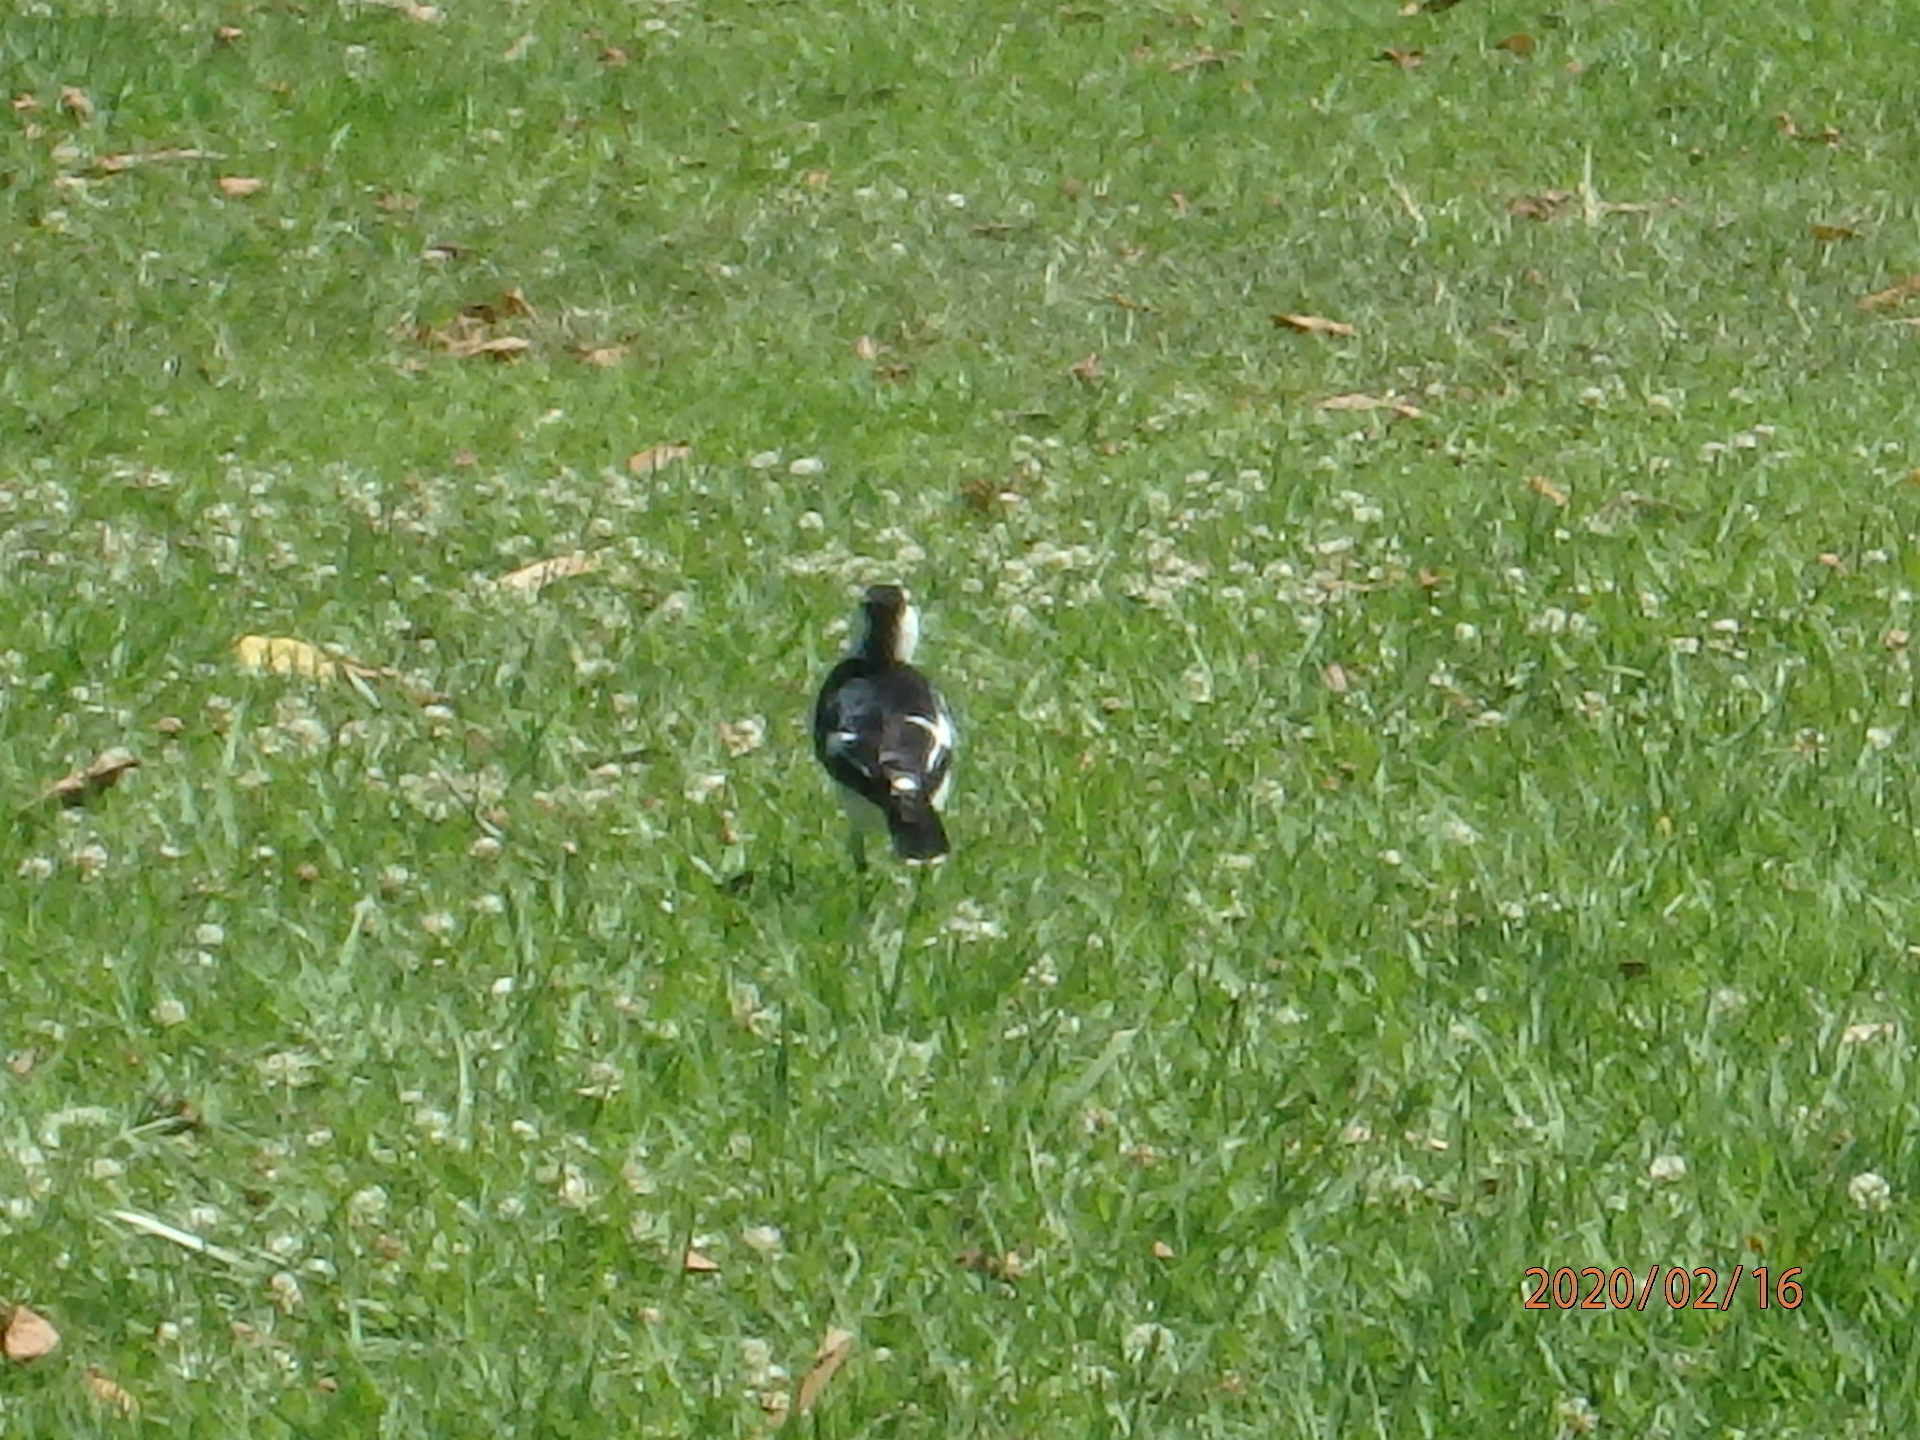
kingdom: Animalia
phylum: Chordata
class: Aves
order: Passeriformes
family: Monarchidae
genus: Grallina
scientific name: Grallina cyanoleuca
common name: Magpie-lark
